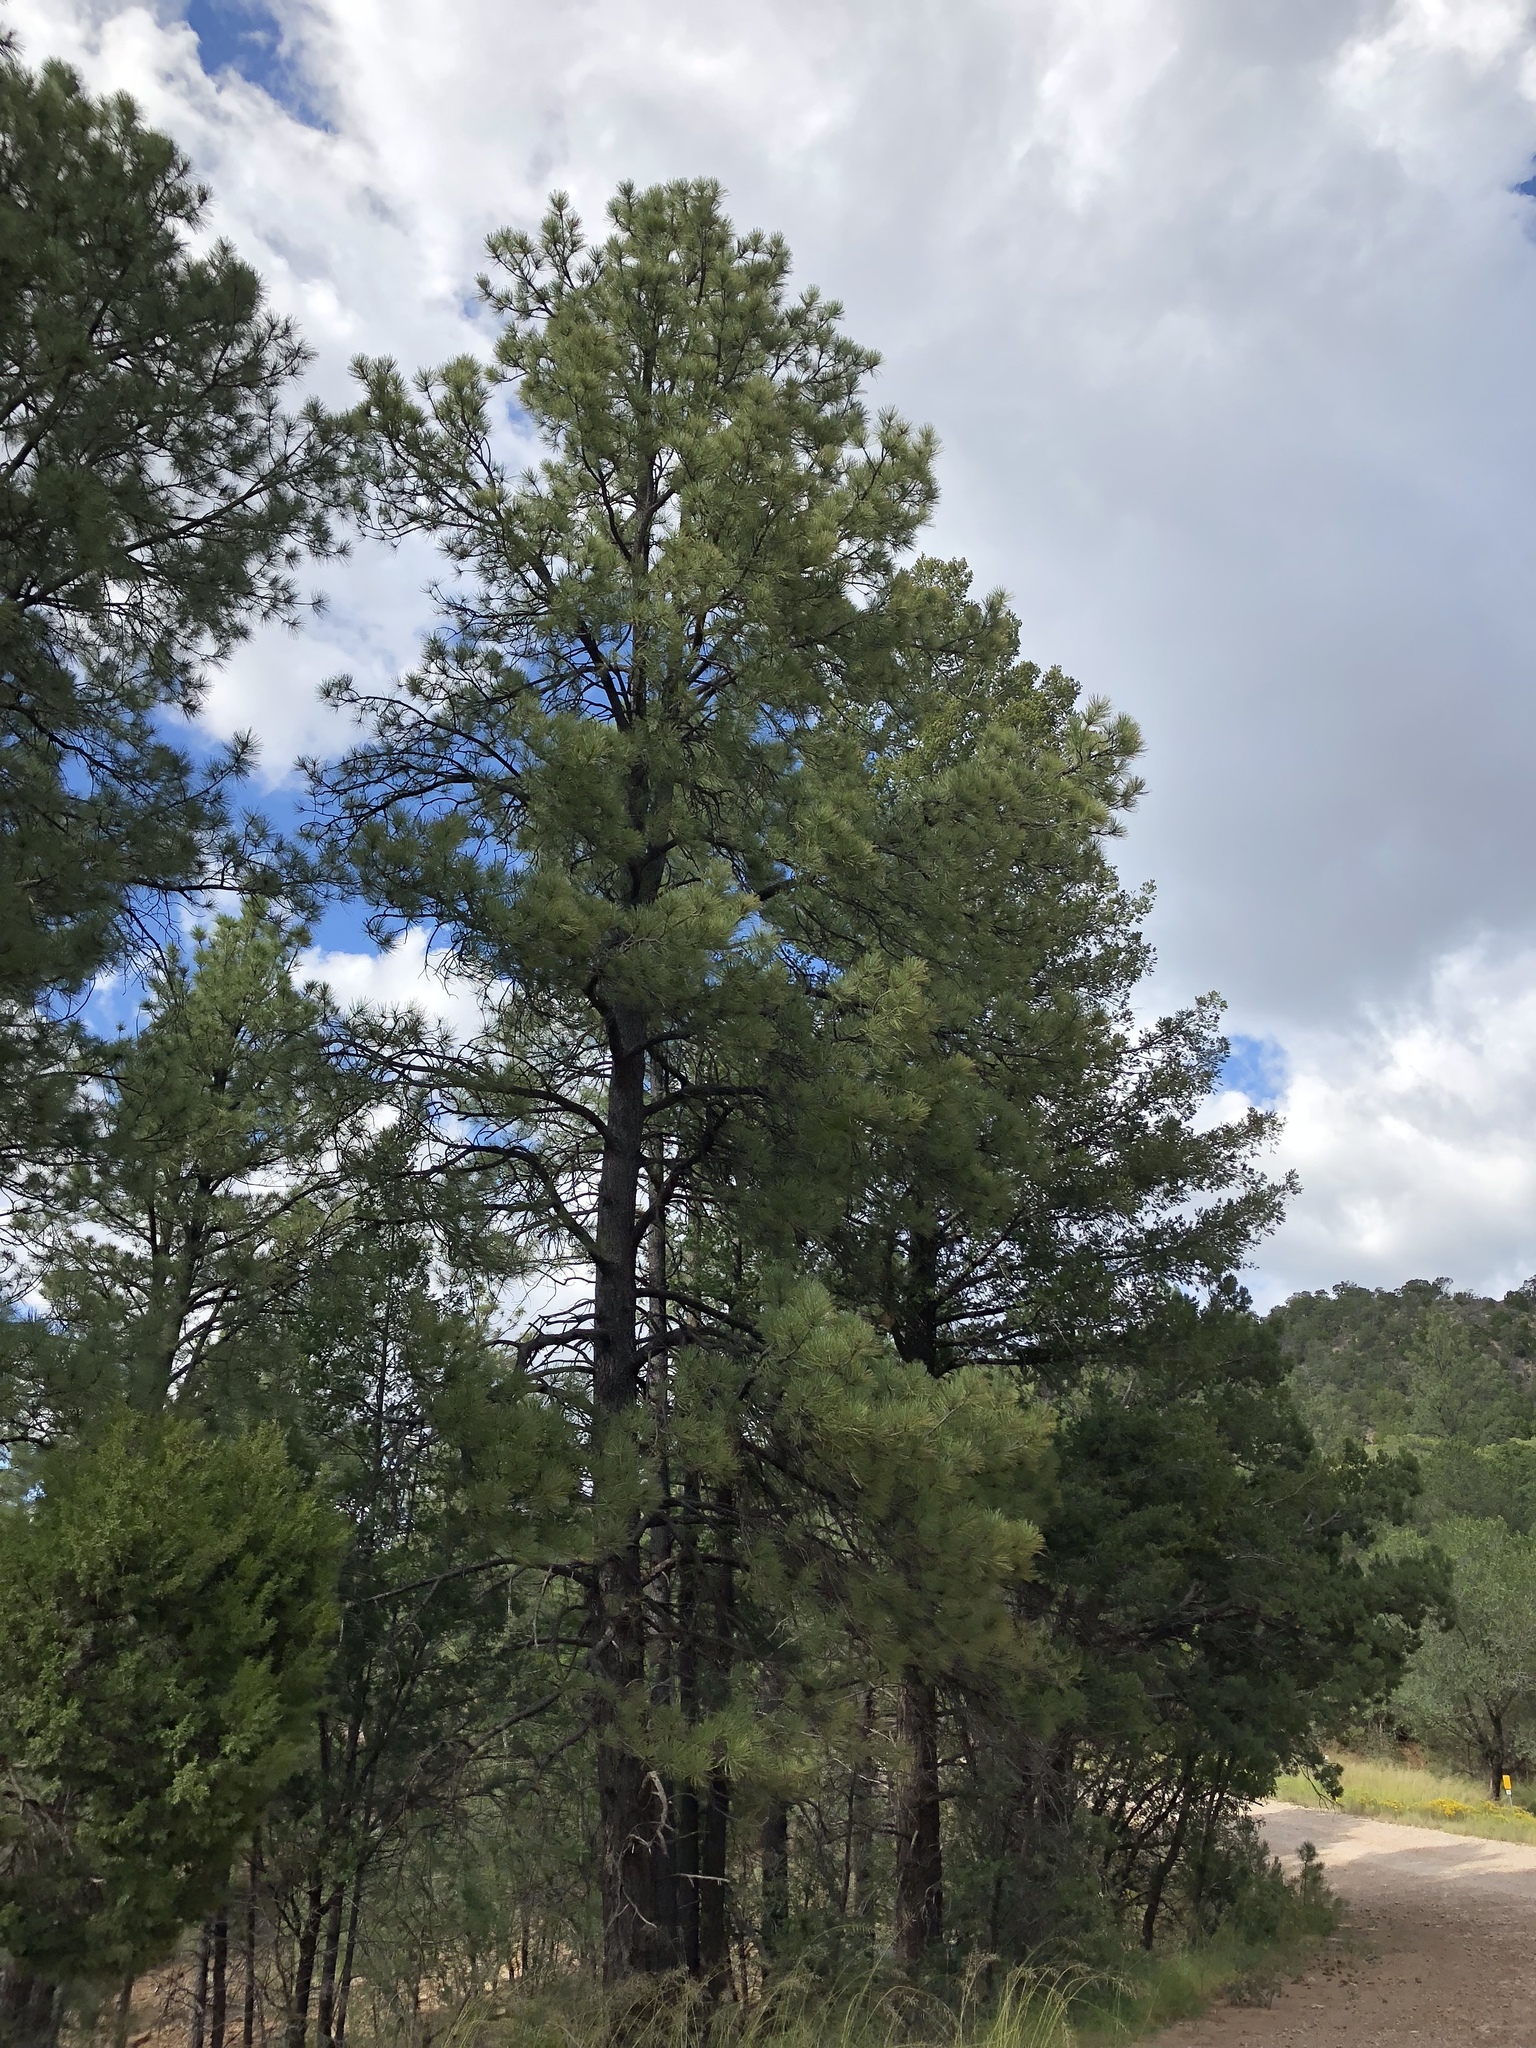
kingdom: Plantae
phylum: Tracheophyta
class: Pinopsida
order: Pinales
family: Pinaceae
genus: Pinus
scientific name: Pinus ponderosa
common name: Western yellow-pine
